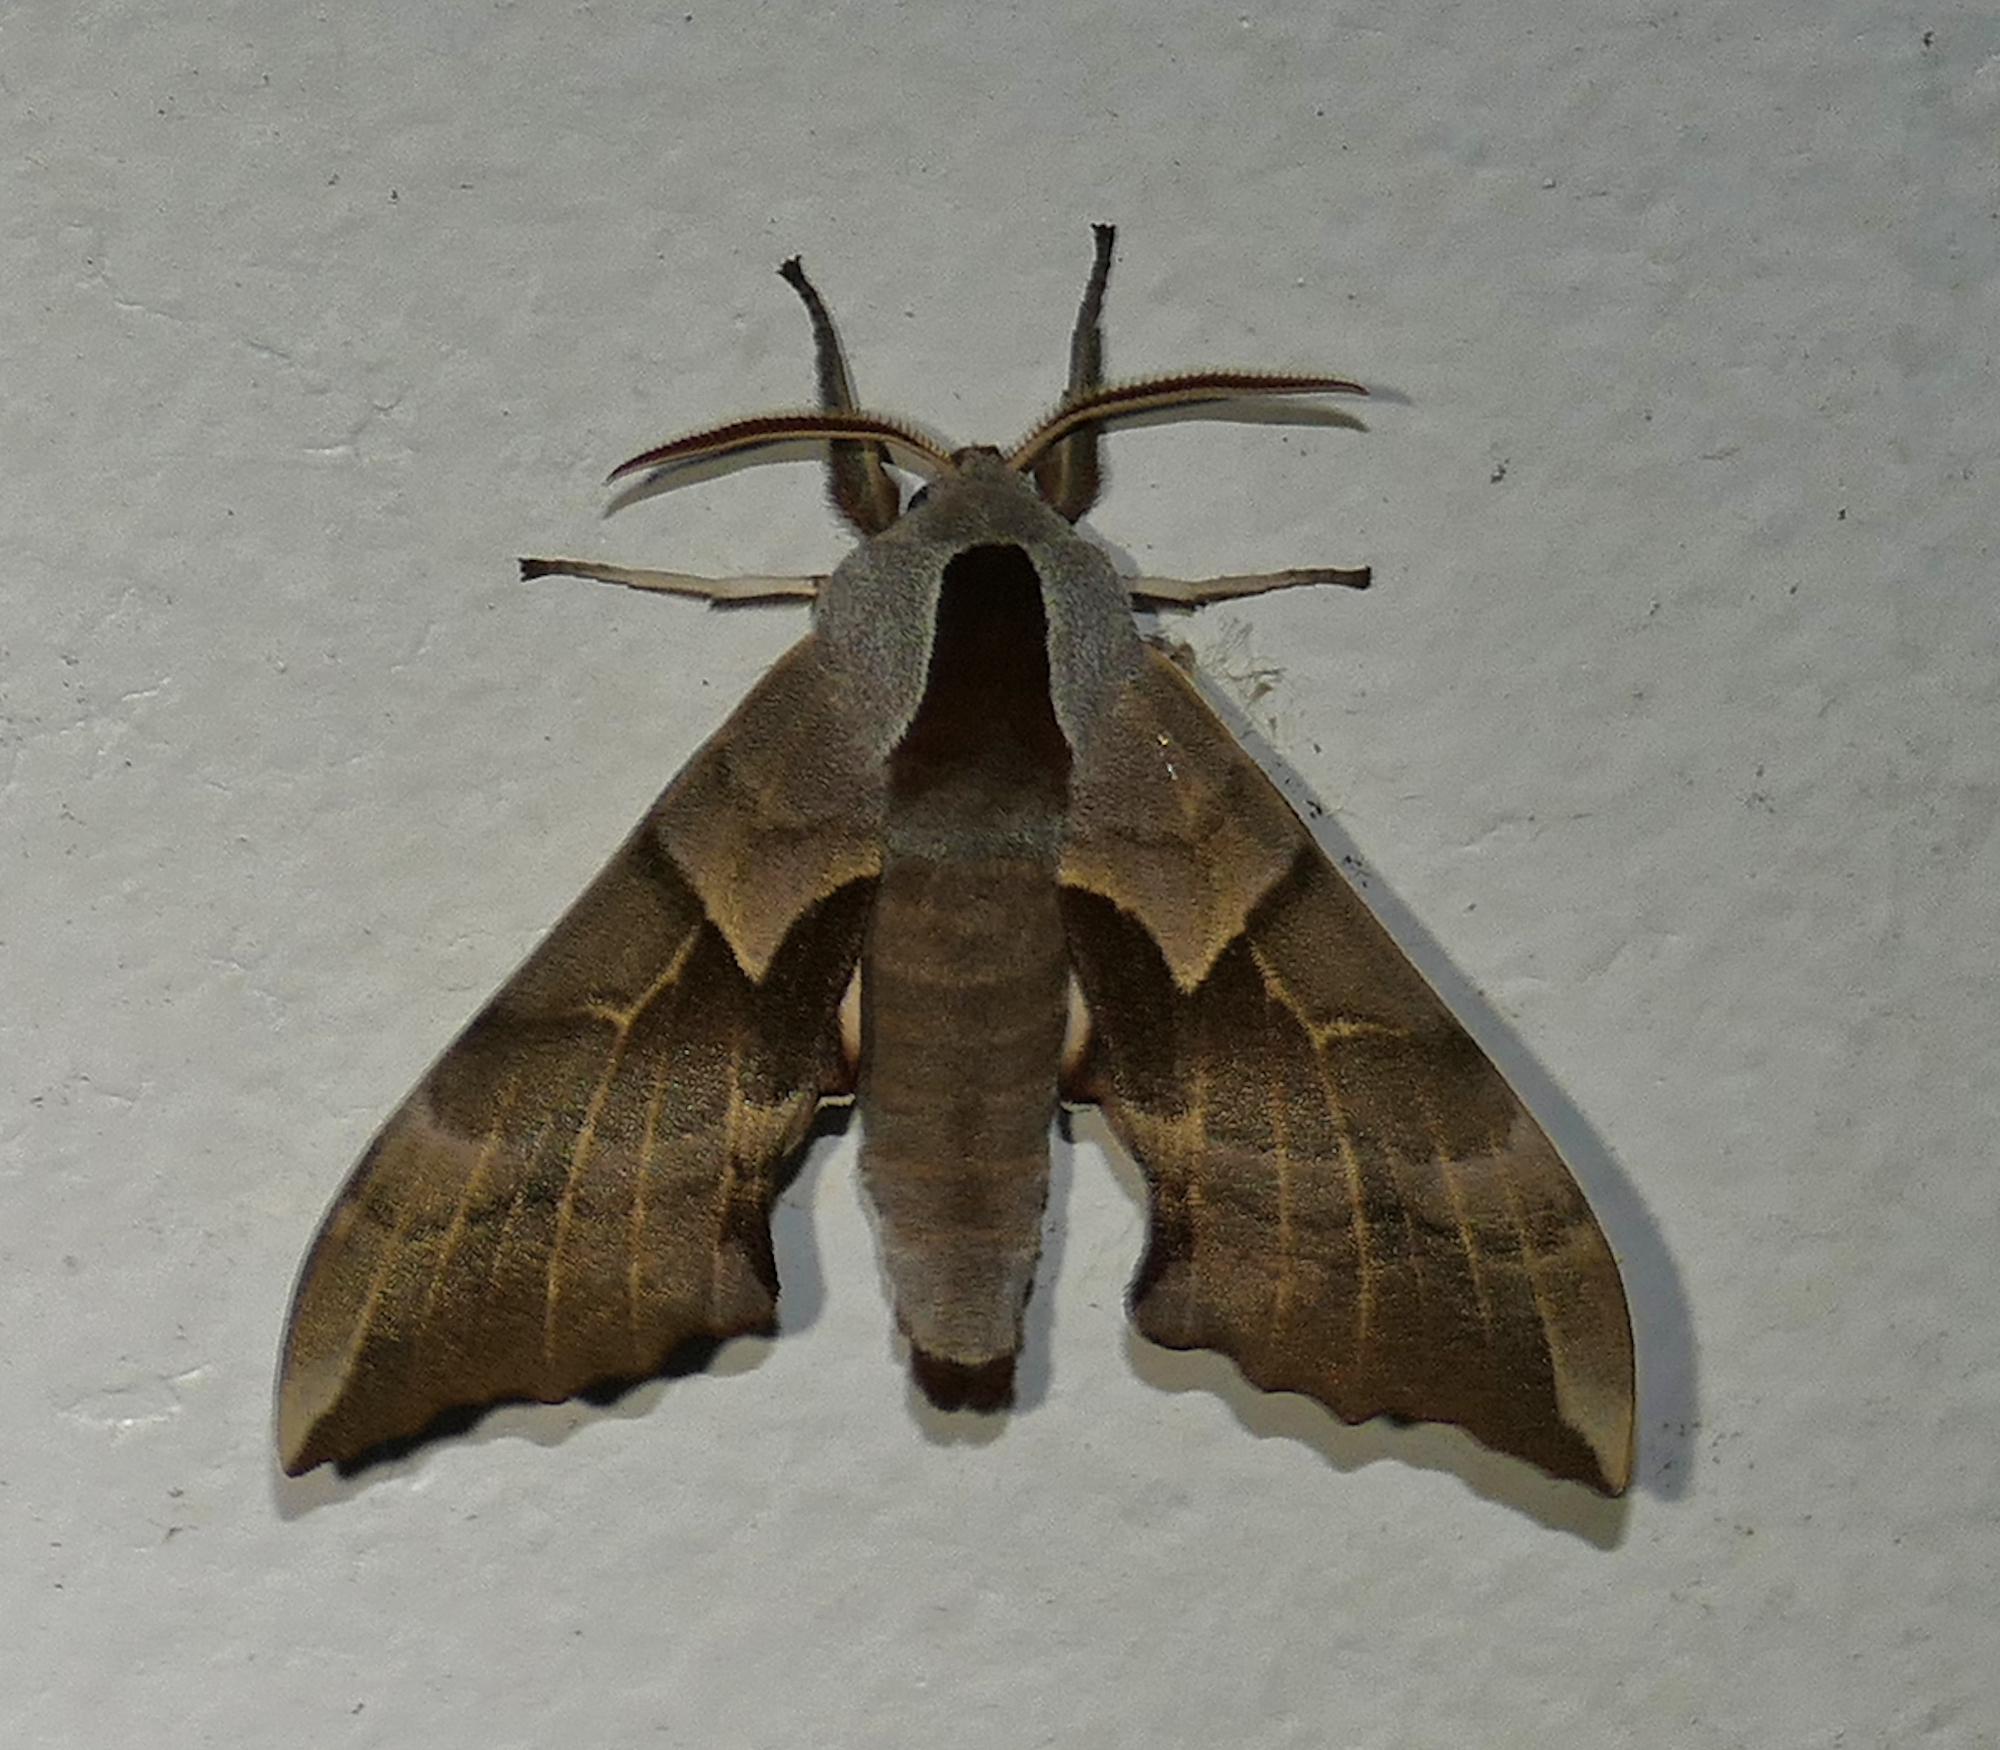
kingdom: Animalia
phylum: Arthropoda
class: Insecta
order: Lepidoptera
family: Sphingidae
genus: Smerinthus
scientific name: Smerinthus saliceti
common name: Salicet sphinx
